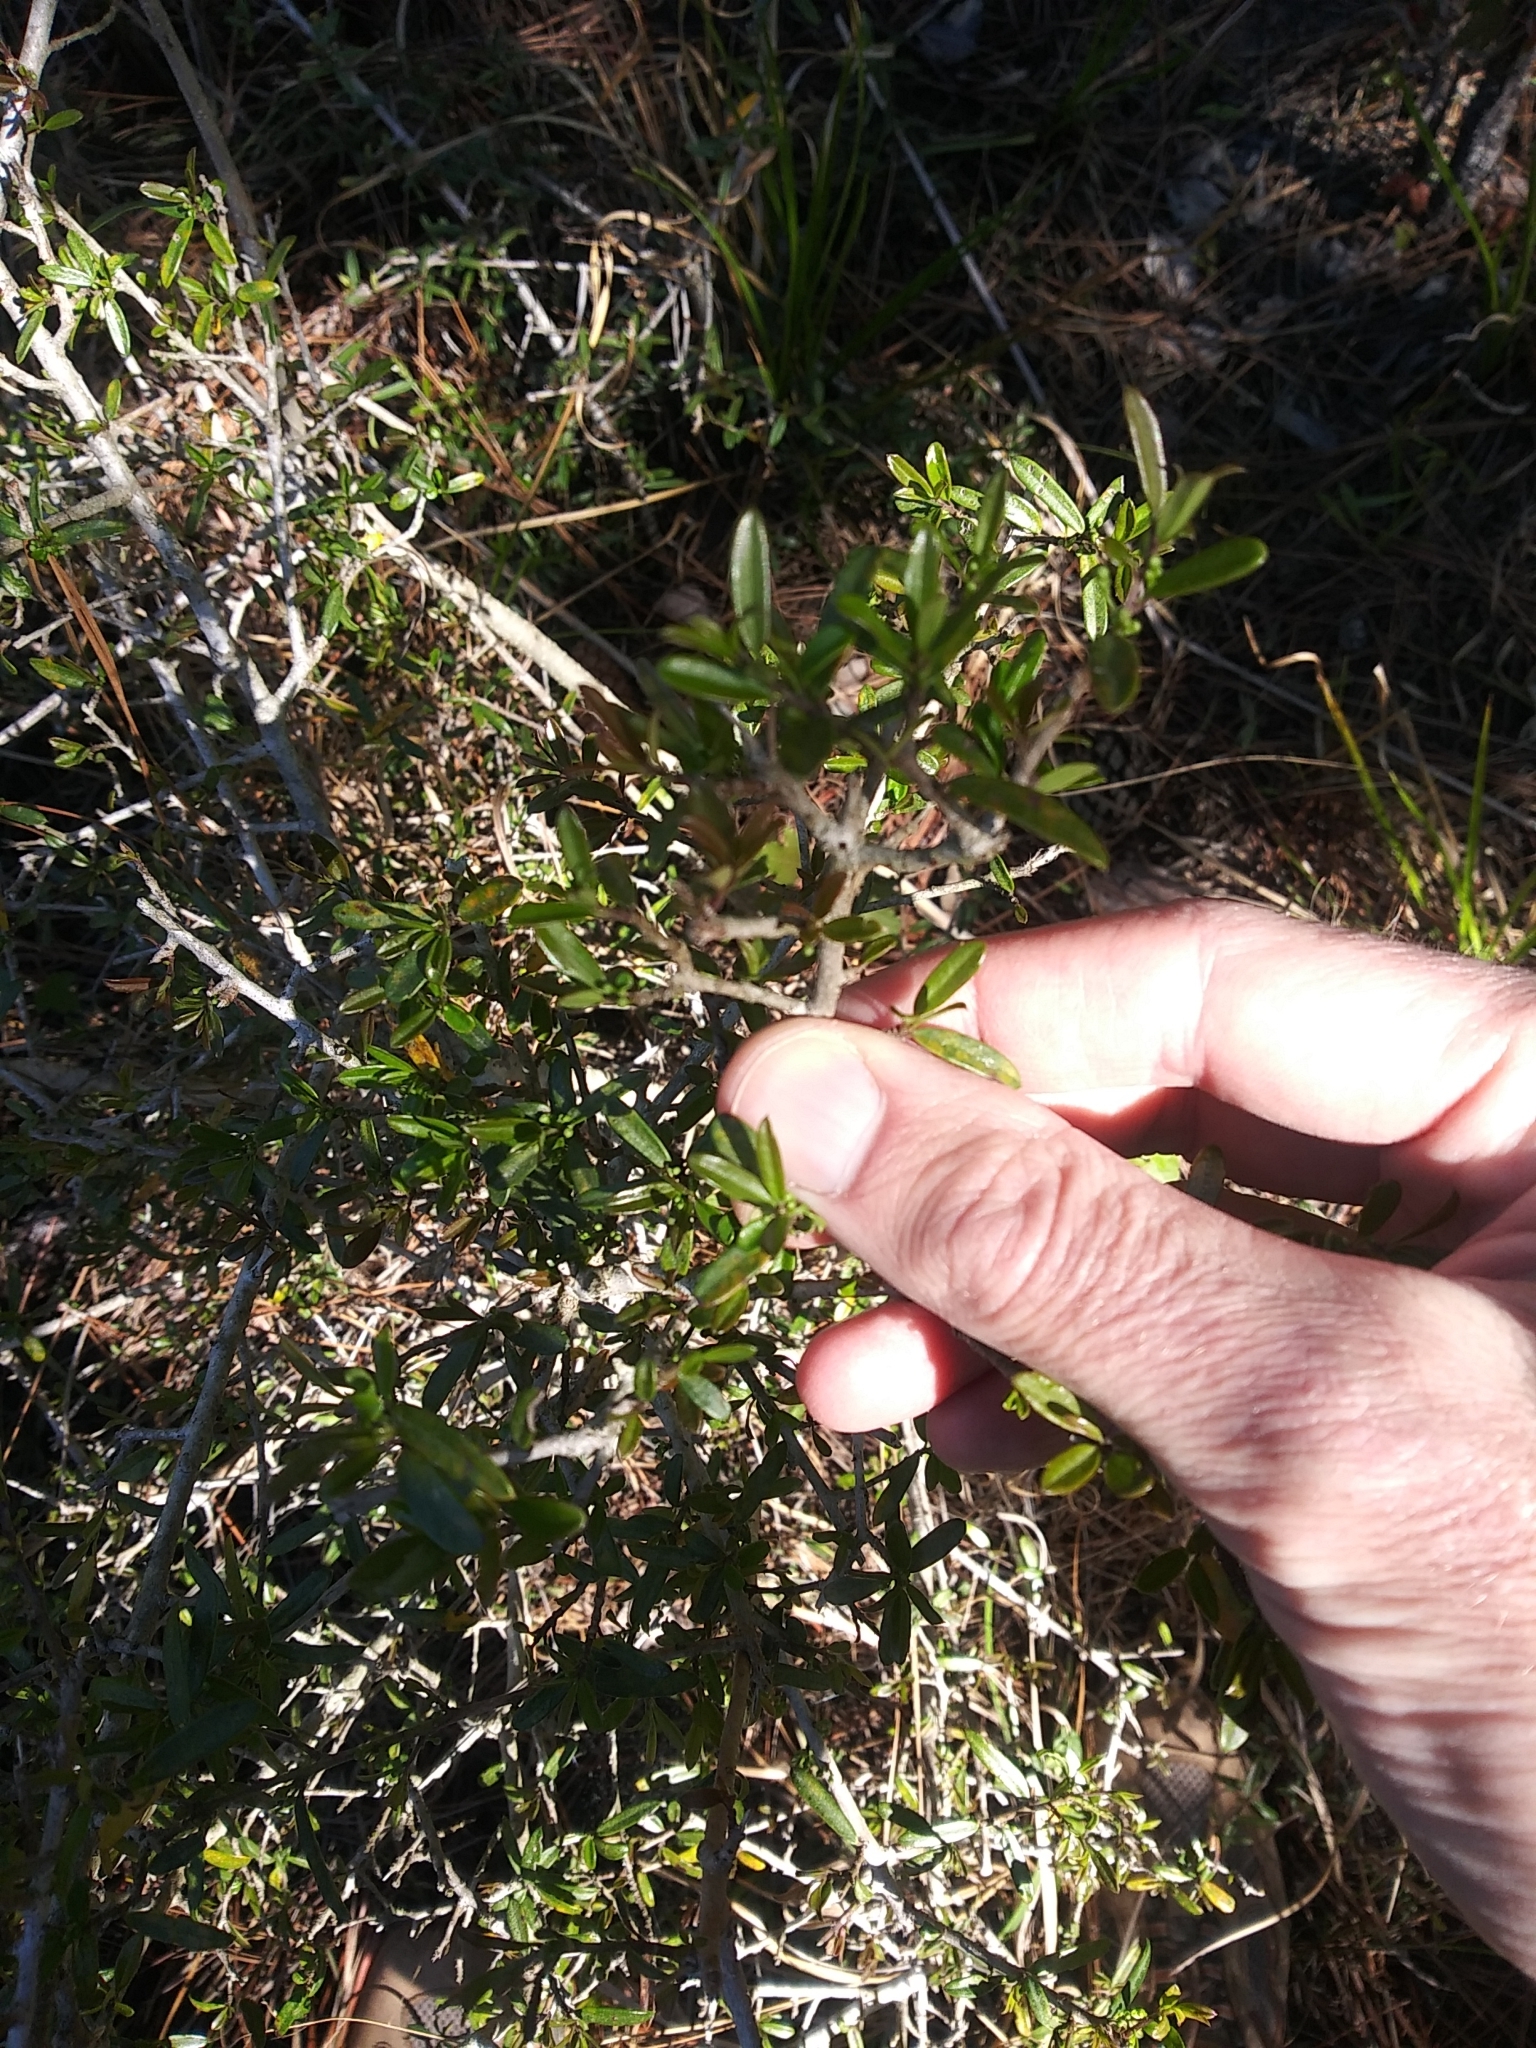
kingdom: Plantae
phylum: Tracheophyta
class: Magnoliopsida
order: Aquifoliales
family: Aquifoliaceae
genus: Ilex
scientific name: Ilex myrtifolia
